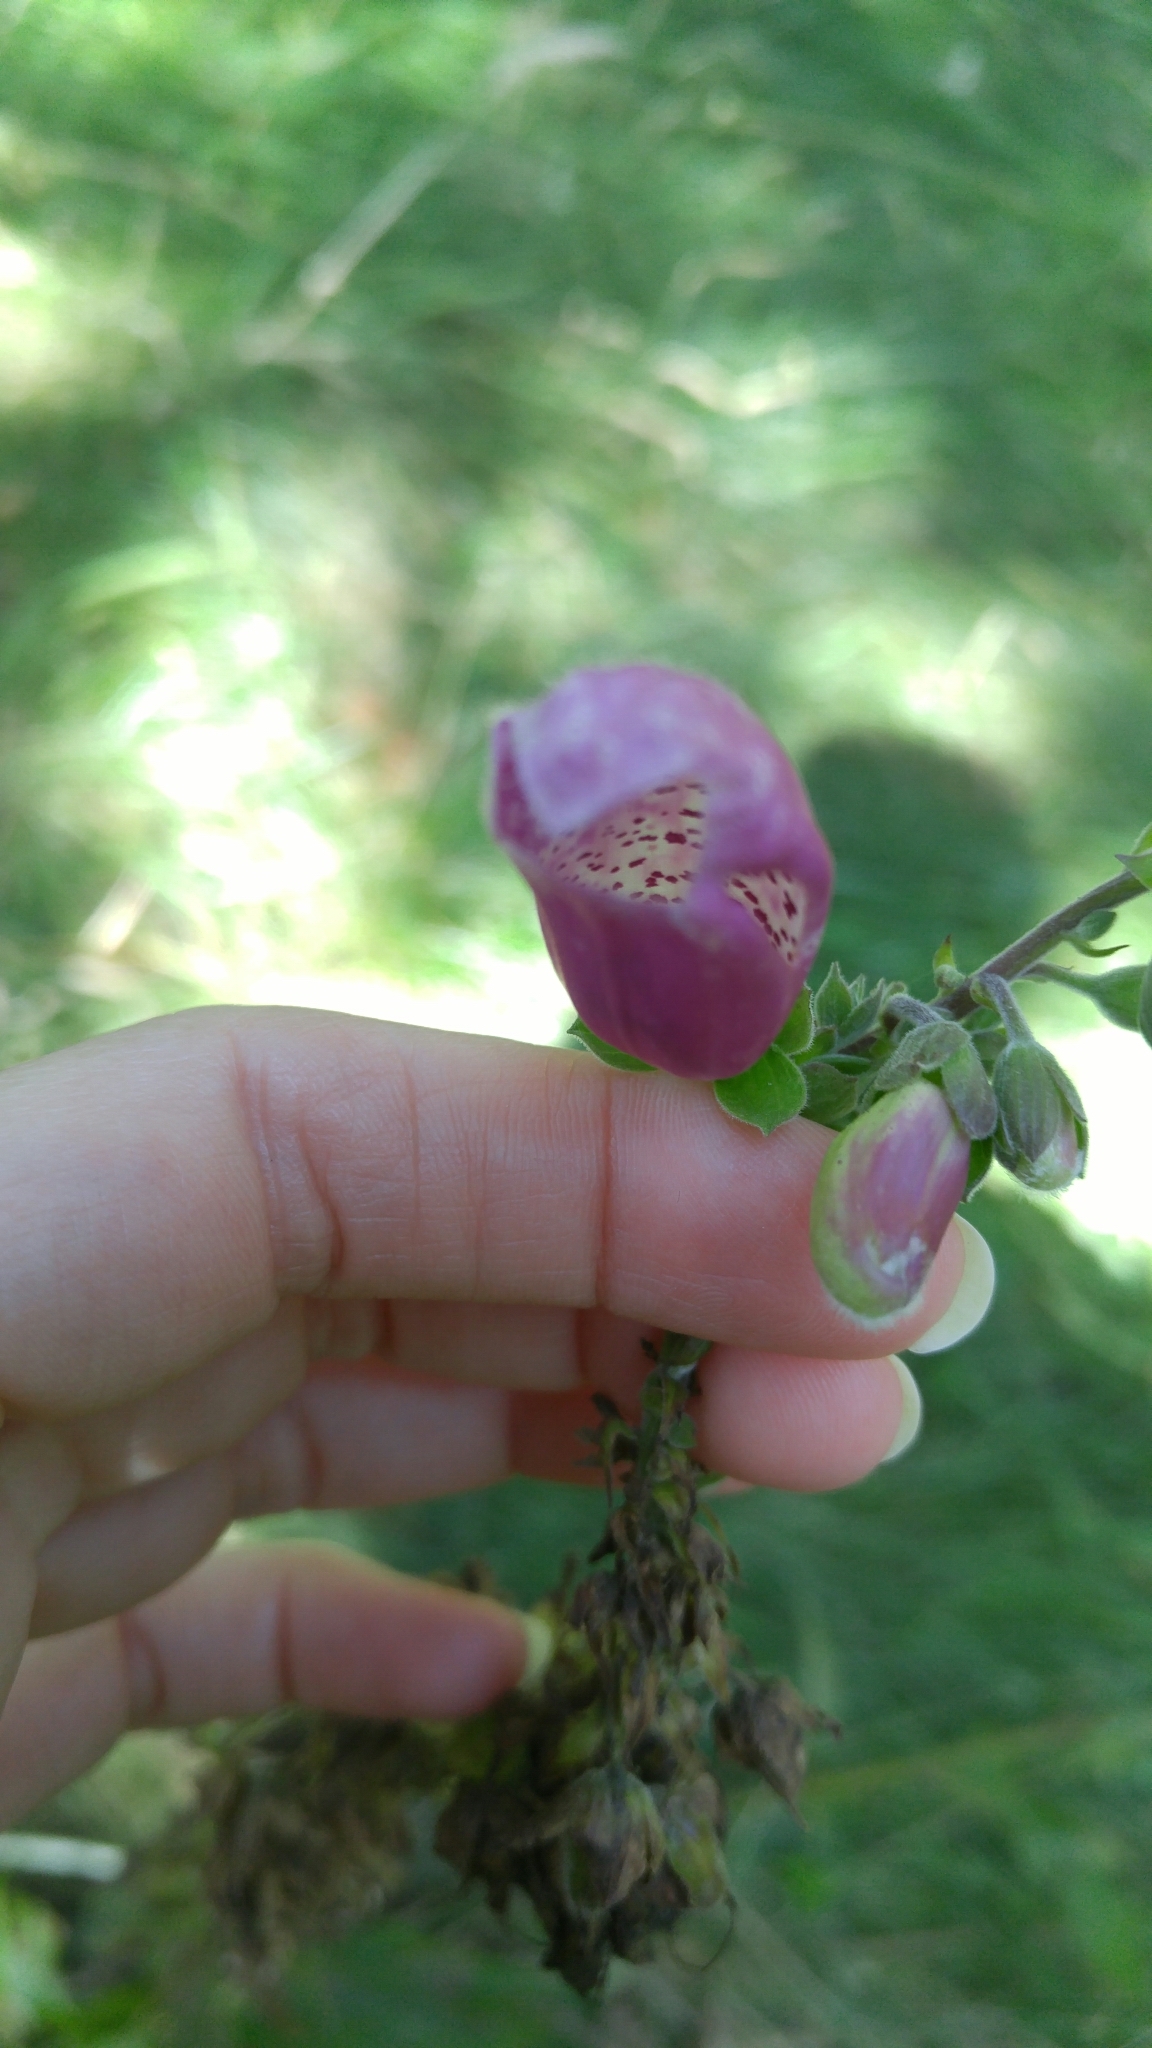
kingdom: Plantae
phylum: Tracheophyta
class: Magnoliopsida
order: Lamiales
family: Plantaginaceae
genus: Digitalis
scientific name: Digitalis purpurea
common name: Foxglove
